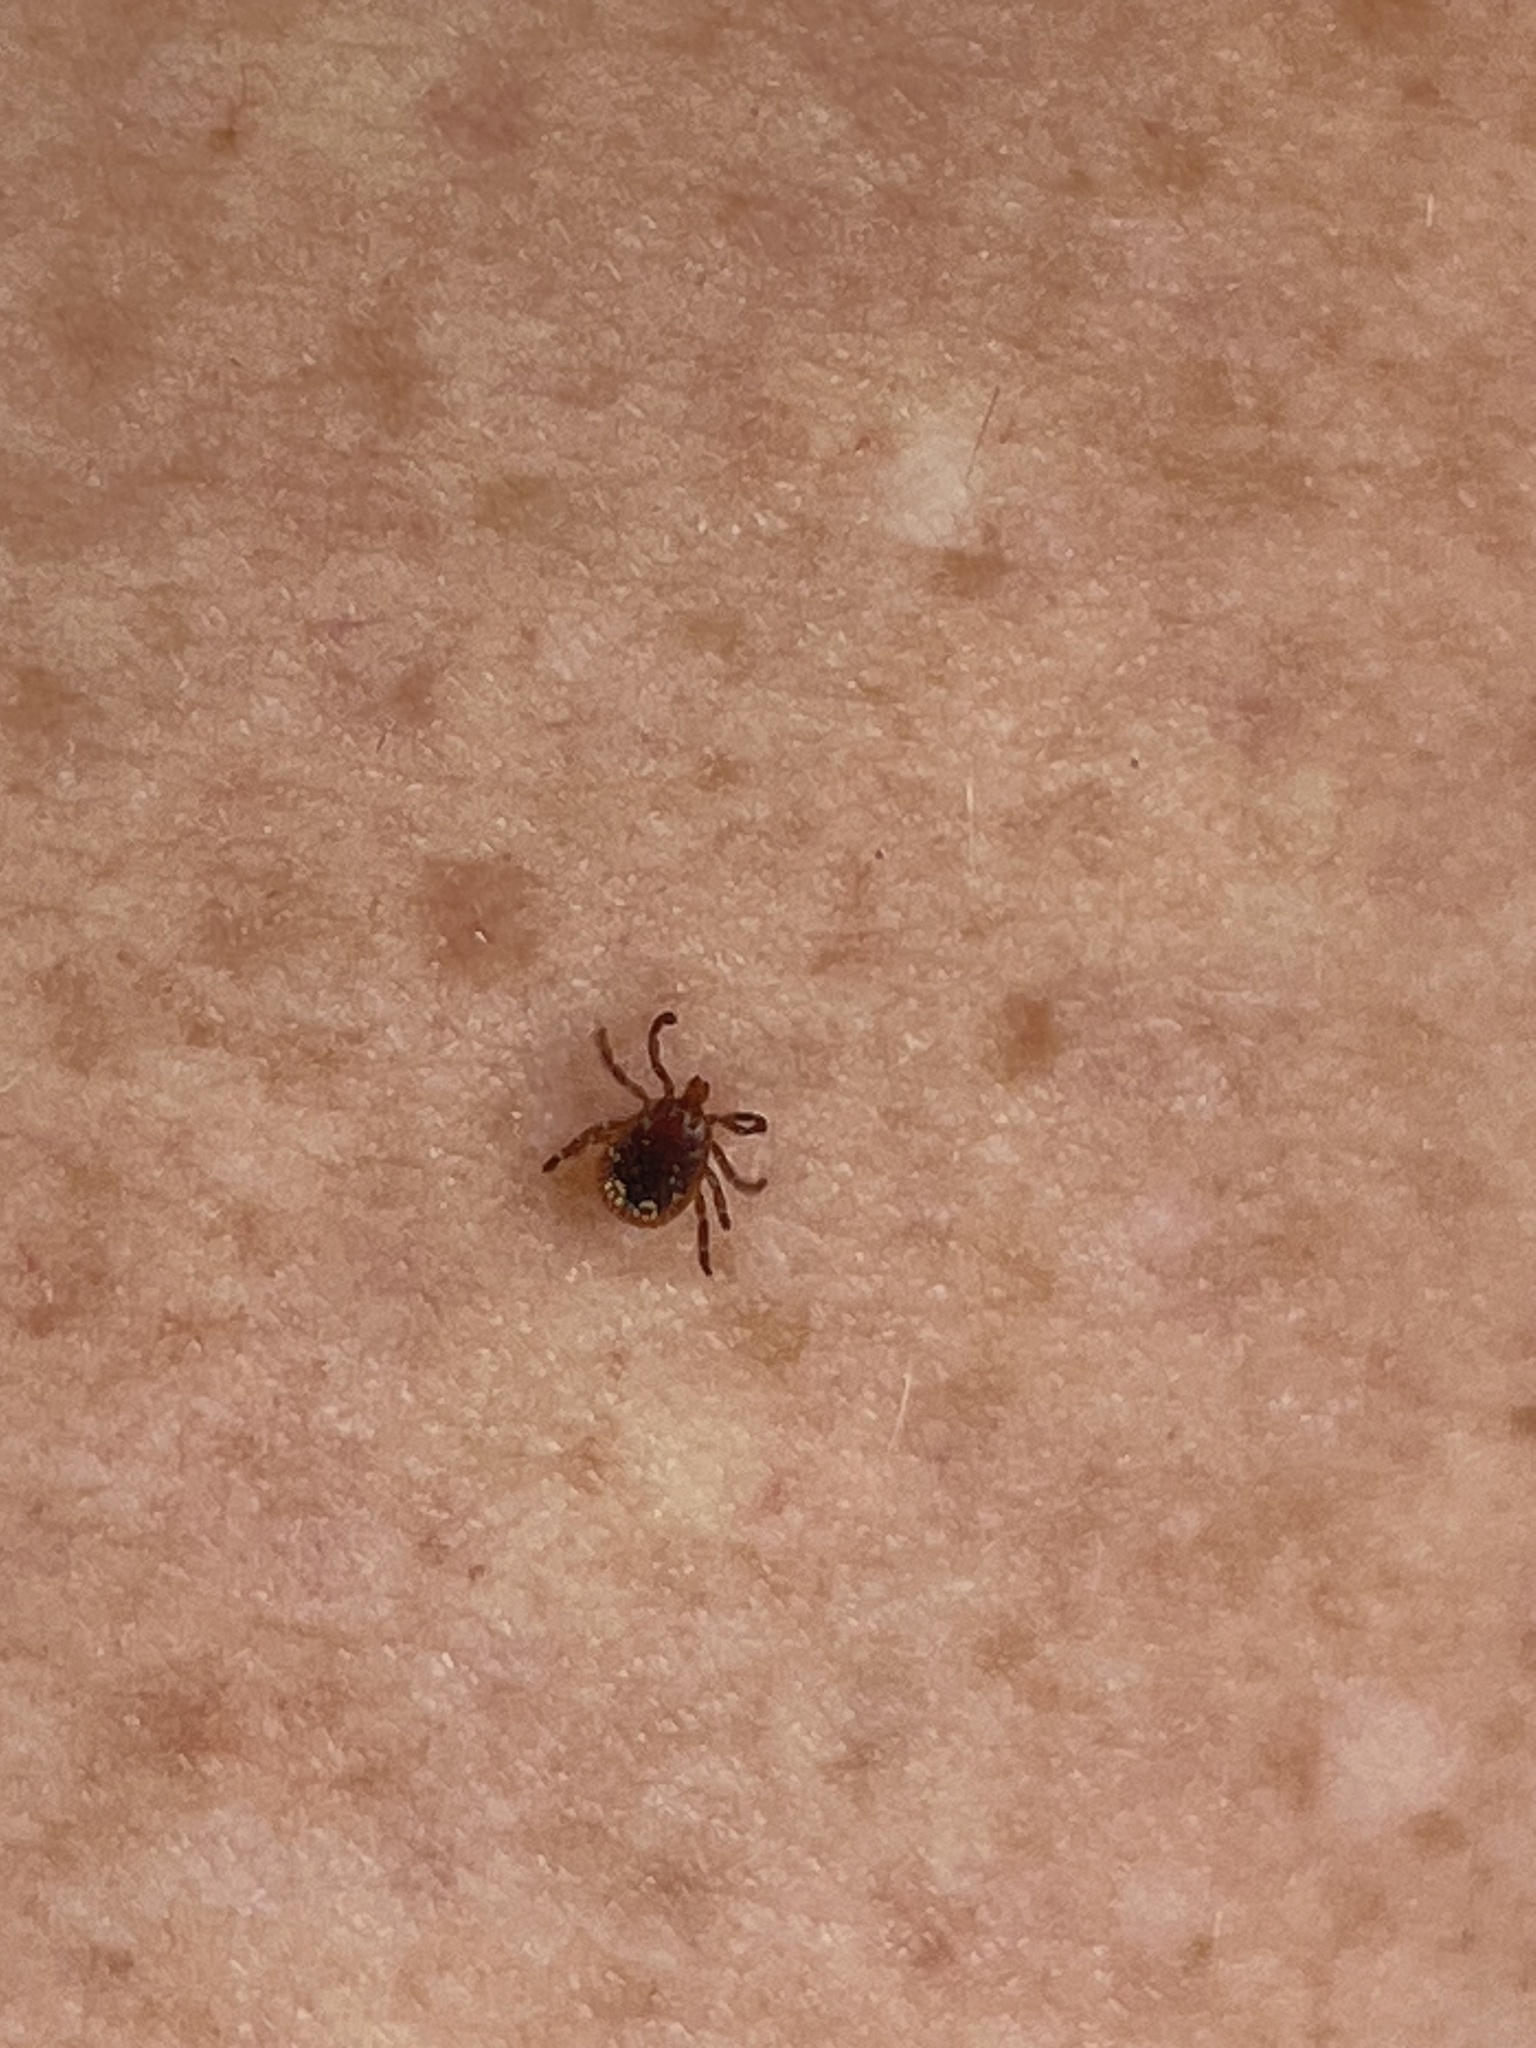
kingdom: Animalia
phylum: Arthropoda
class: Arachnida
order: Ixodida
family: Ixodidae
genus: Amblyomma
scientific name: Amblyomma americanum
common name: Lone star tick
